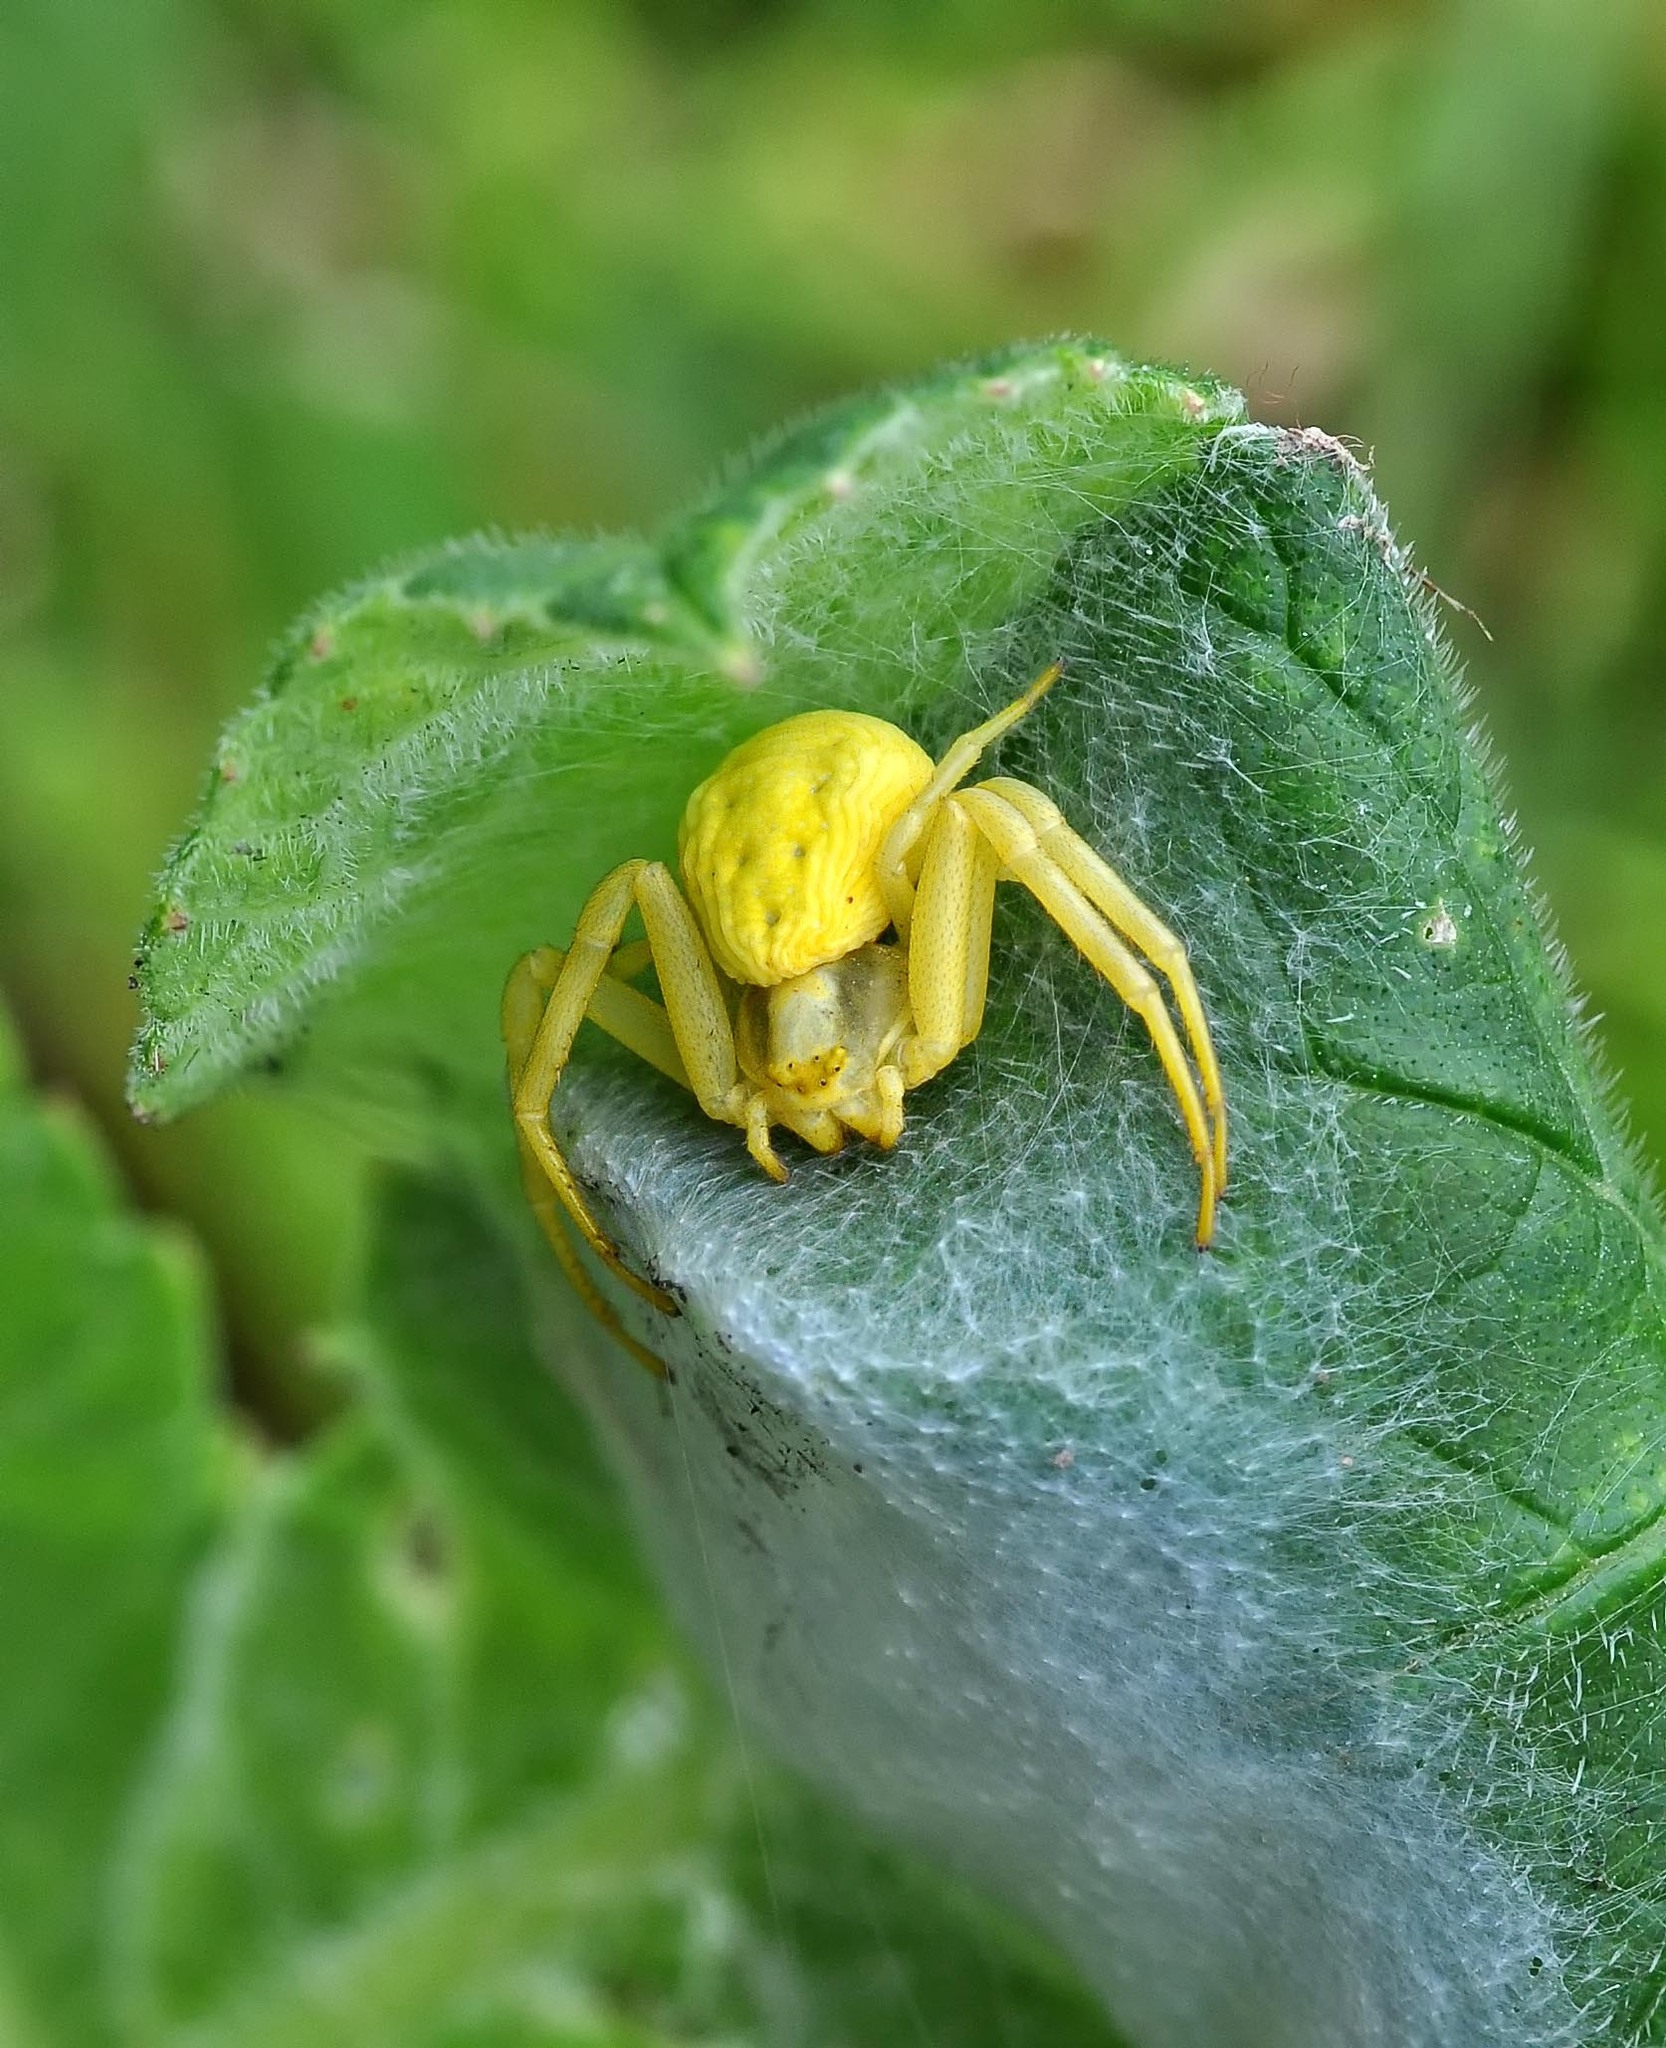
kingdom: Animalia
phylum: Arthropoda
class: Arachnida
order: Araneae
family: Thomisidae
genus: Misumena
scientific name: Misumena vatia
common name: Goldenrod crab spider
